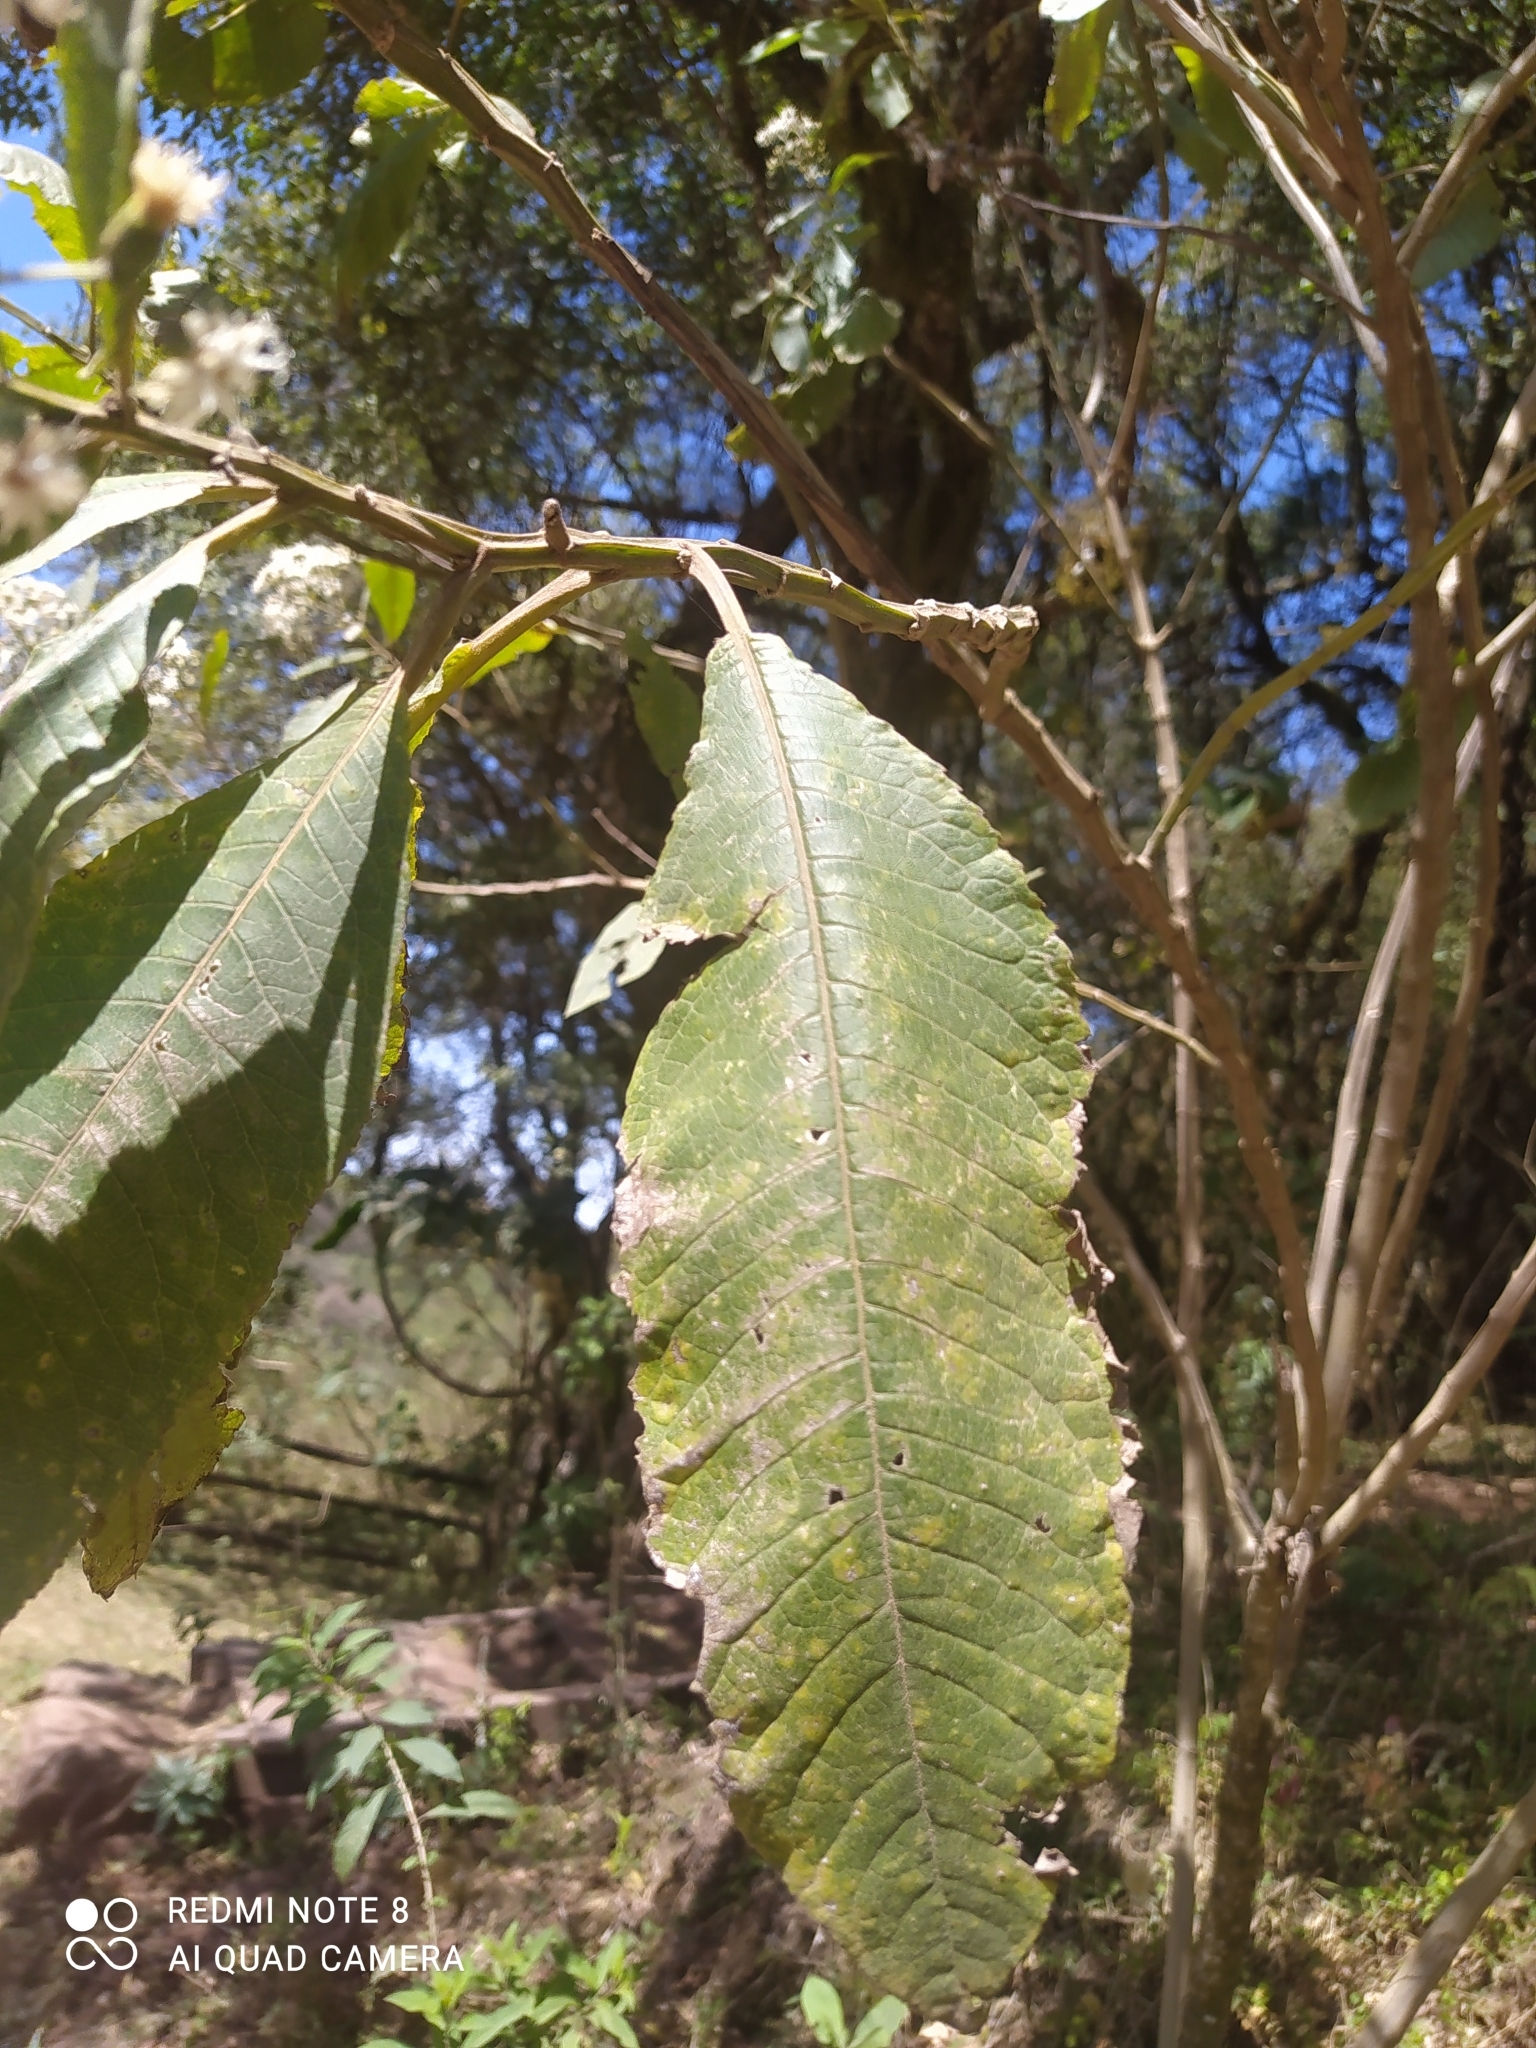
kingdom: Plantae
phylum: Tracheophyta
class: Magnoliopsida
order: Asterales
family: Asteraceae
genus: Vernonanthura
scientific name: Vernonanthura pinguis
